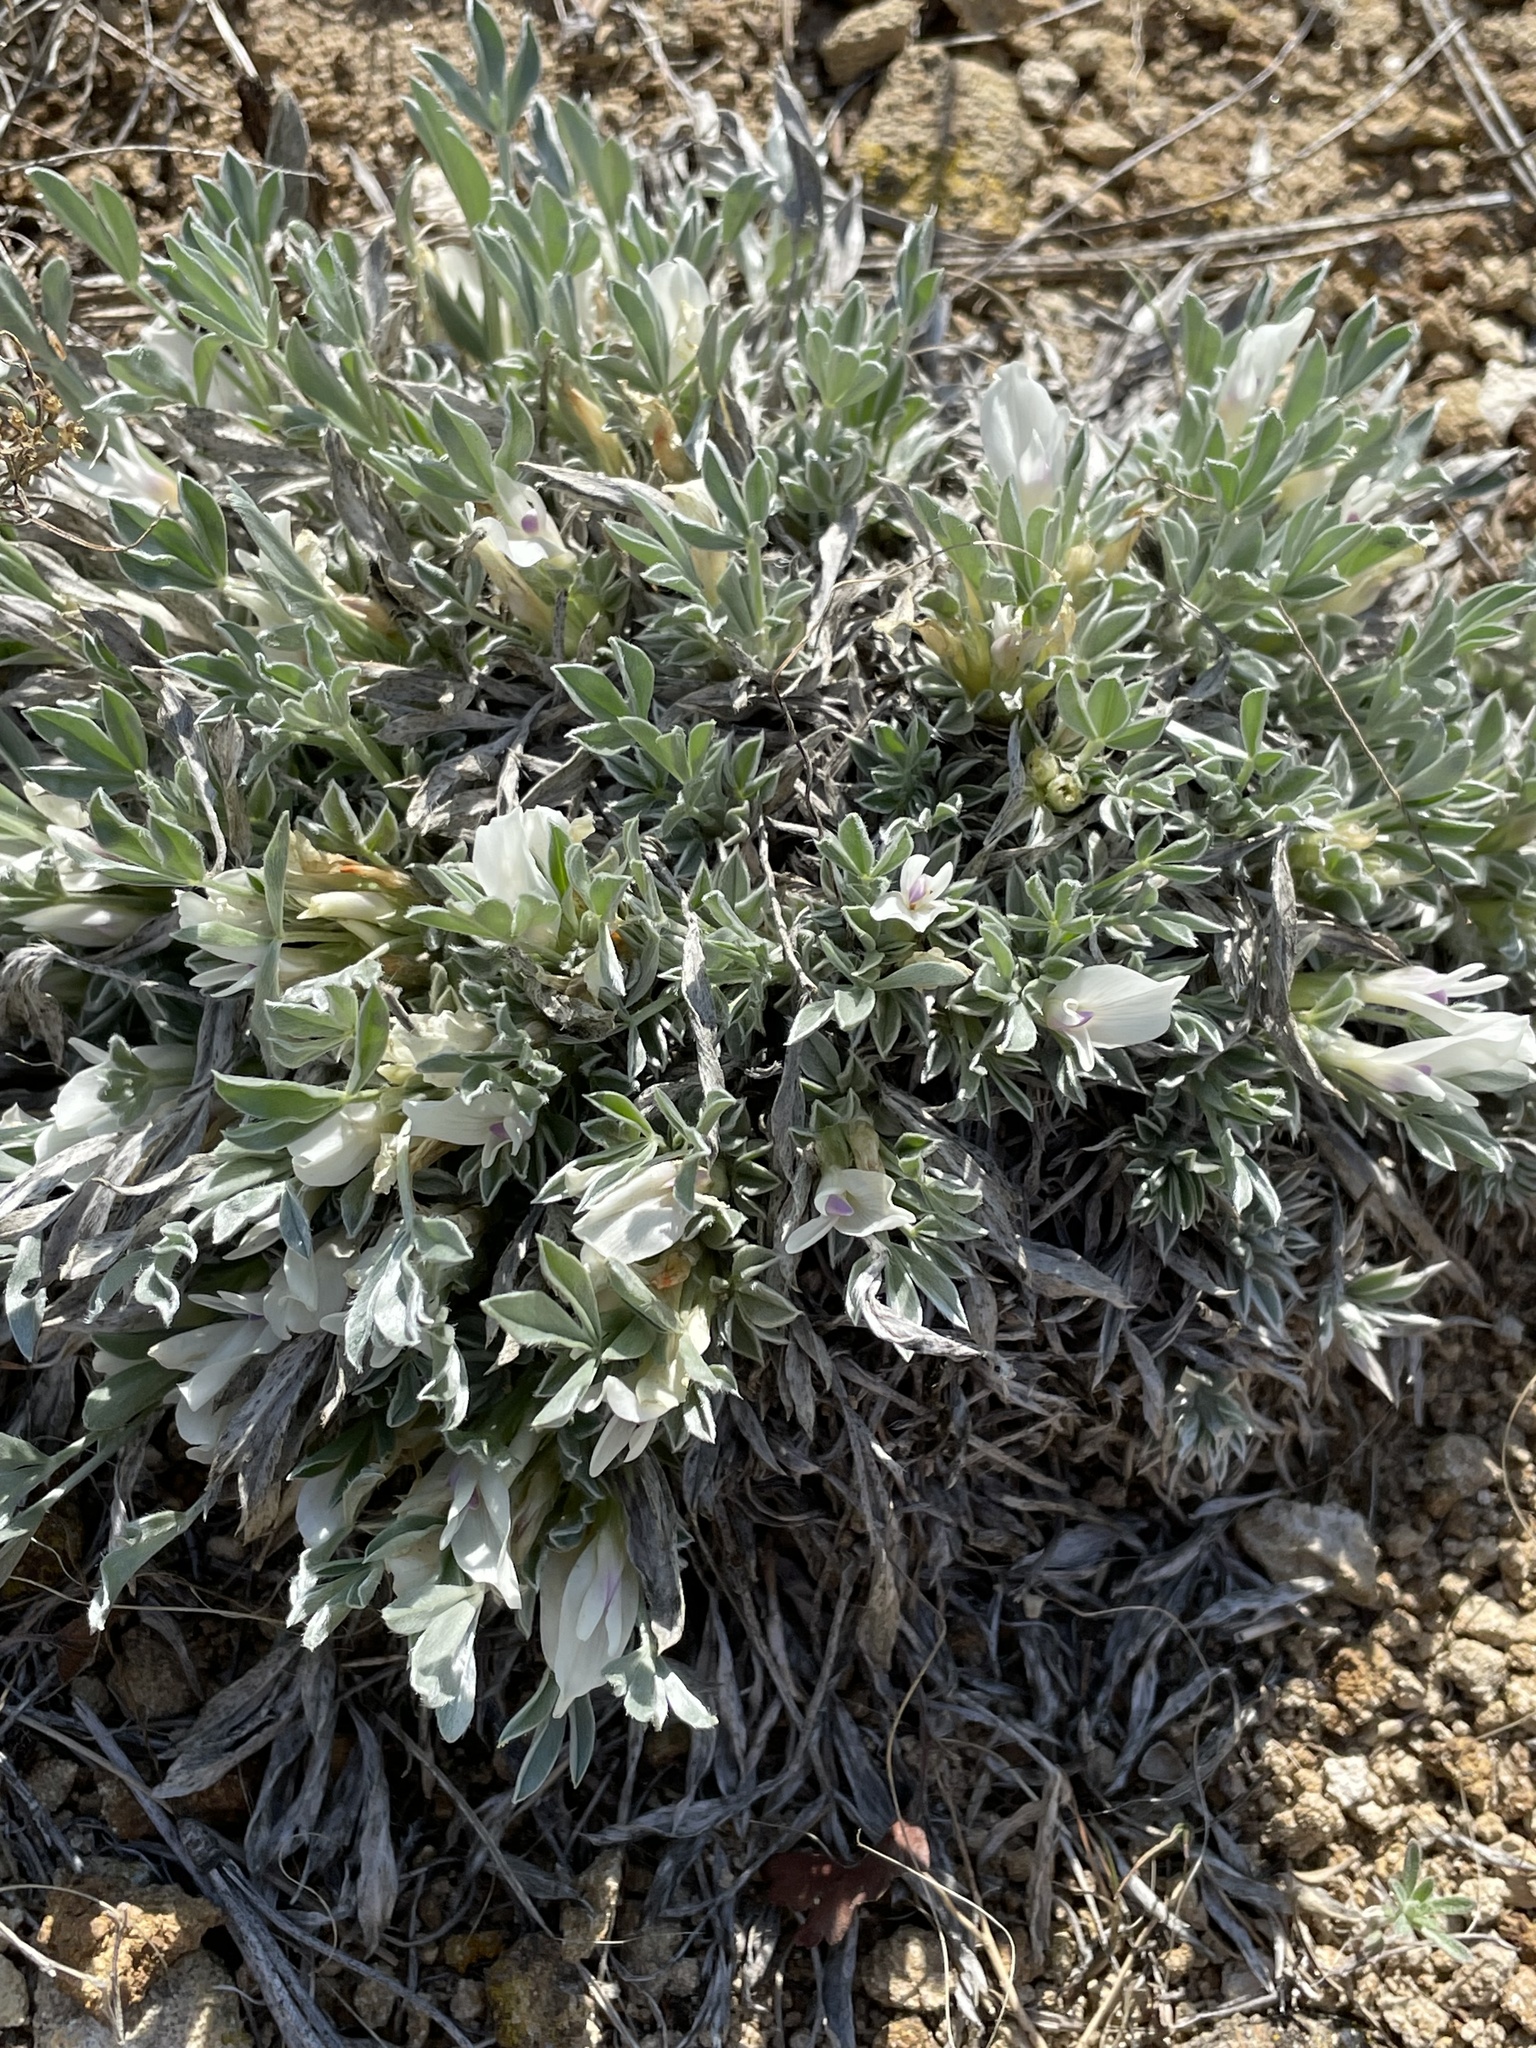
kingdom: Plantae
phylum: Tracheophyta
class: Magnoliopsida
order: Fabales
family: Fabaceae
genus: Astragalus
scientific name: Astragalus gilviflorus
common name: Cushion milk-vetch
